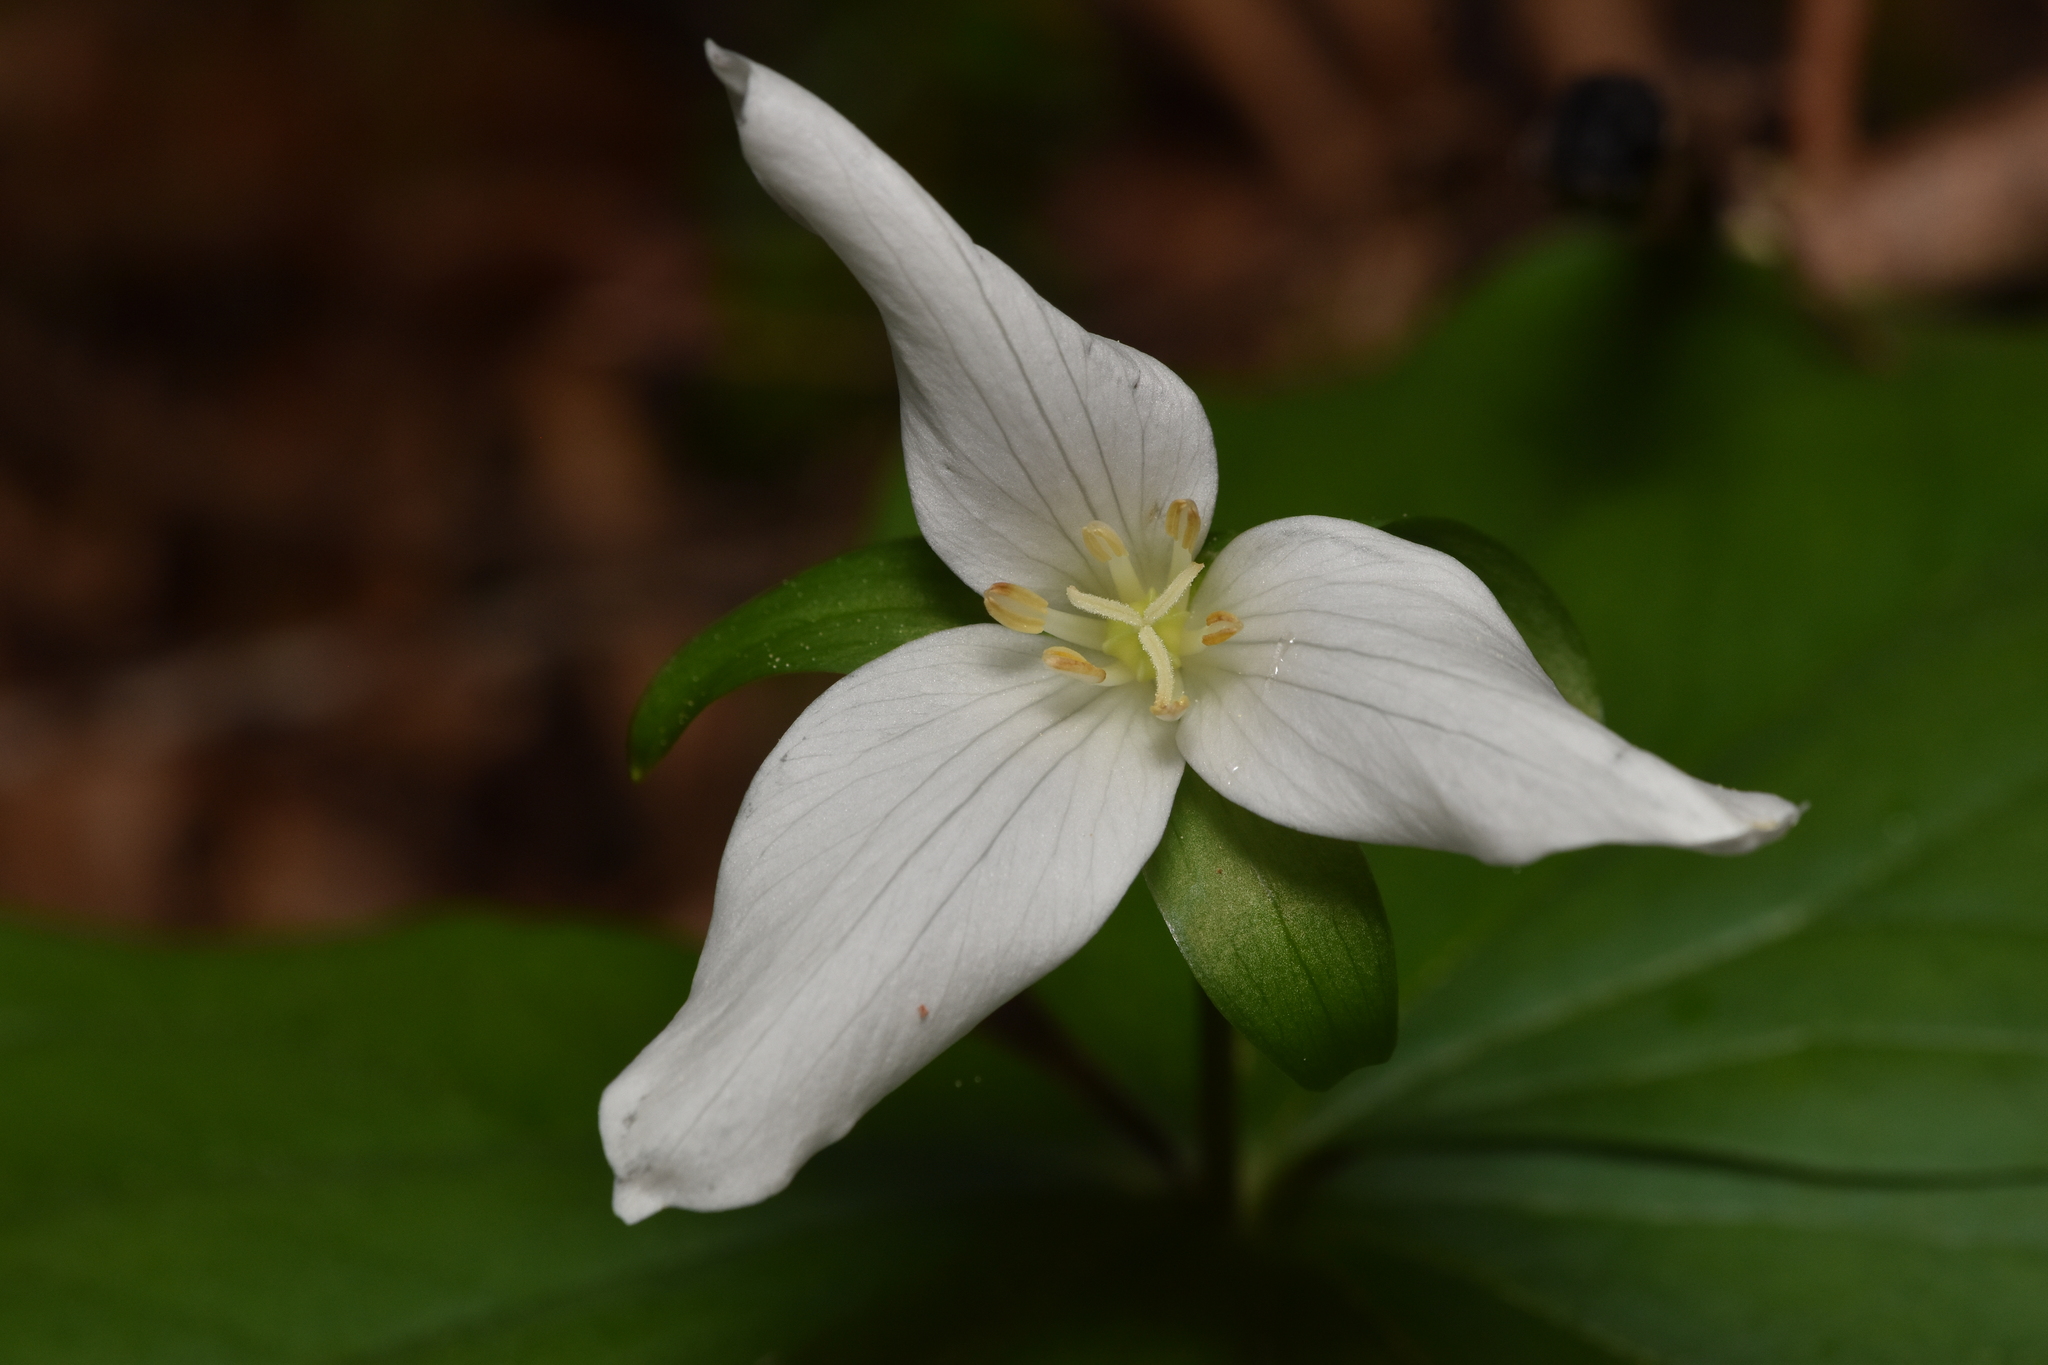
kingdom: Plantae
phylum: Tracheophyta
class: Liliopsida
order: Liliales
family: Melanthiaceae
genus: Trillium
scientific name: Trillium ovatum
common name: Pacific trillium
